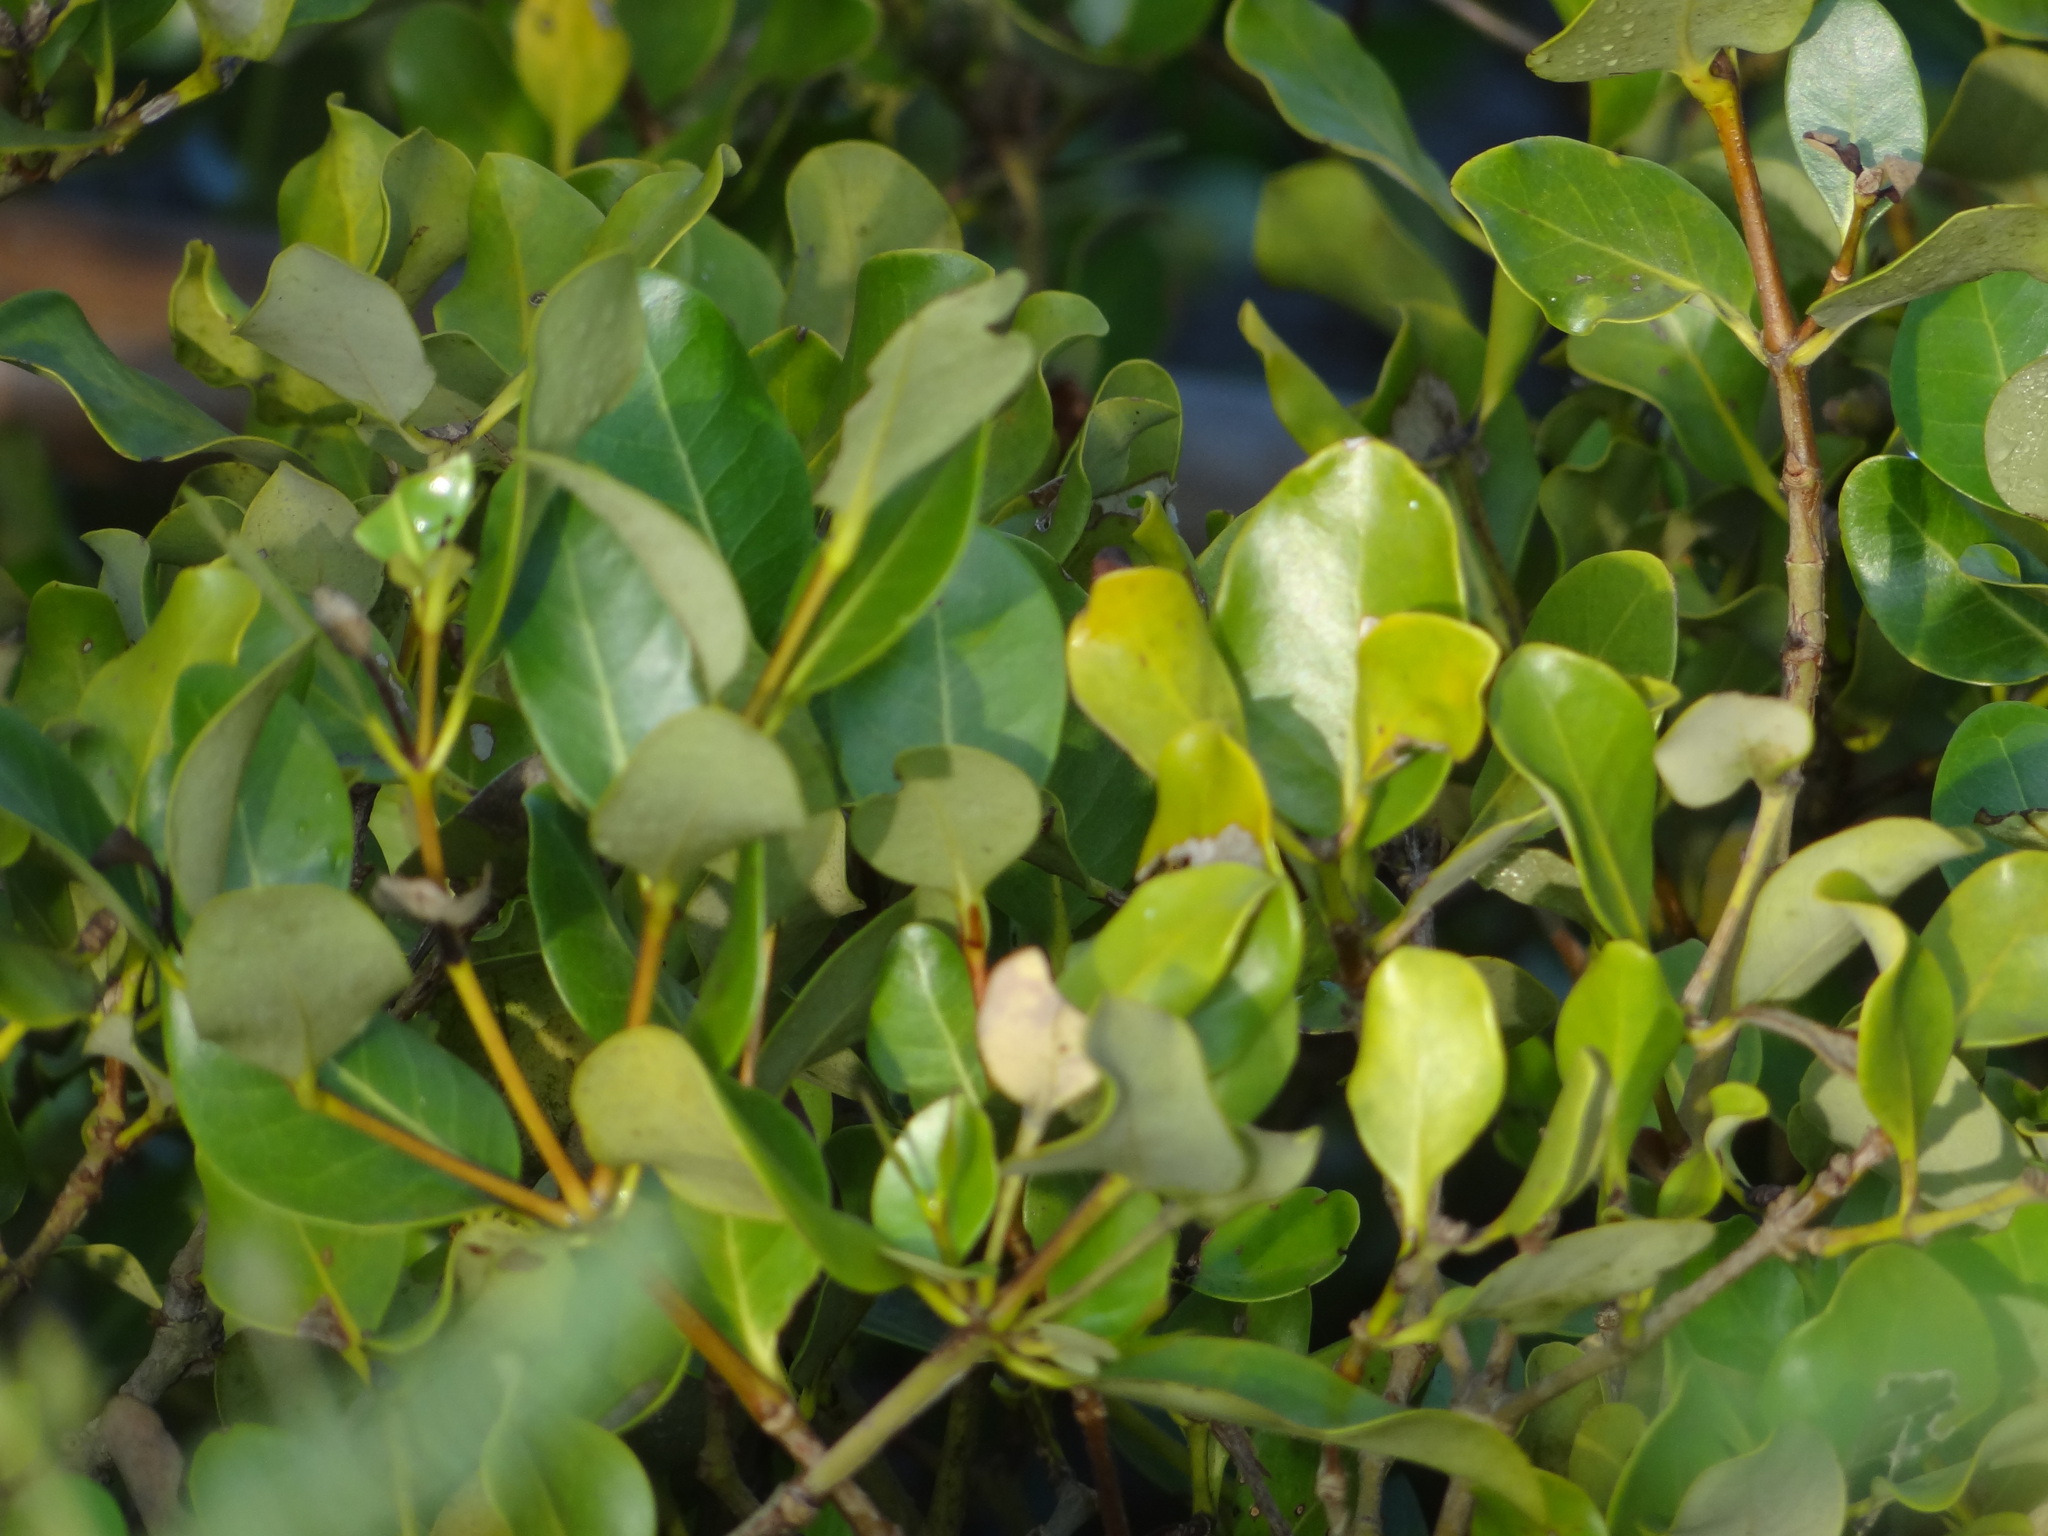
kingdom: Plantae
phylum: Tracheophyta
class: Magnoliopsida
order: Lamiales
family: Acanthaceae
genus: Avicennia
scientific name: Avicennia marina
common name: Gray mangrove
